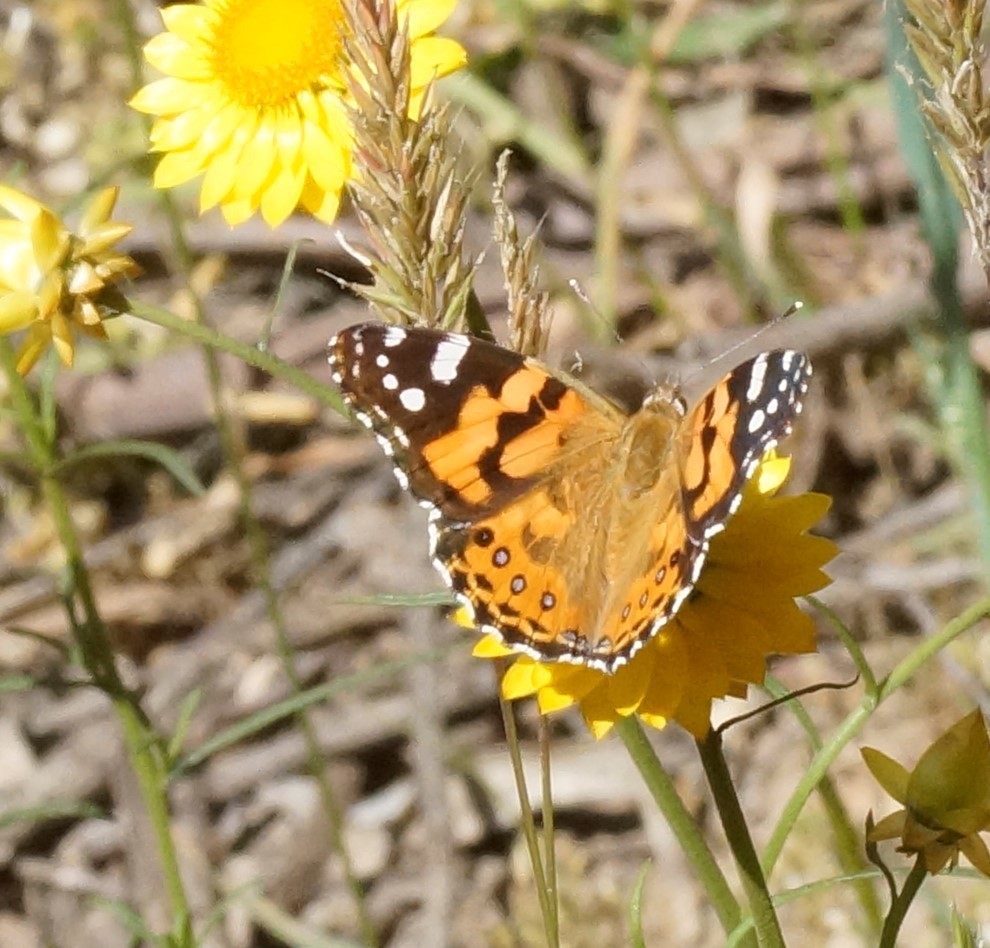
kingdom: Animalia
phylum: Arthropoda
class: Insecta
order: Lepidoptera
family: Nymphalidae
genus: Vanessa
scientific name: Vanessa kershawi
